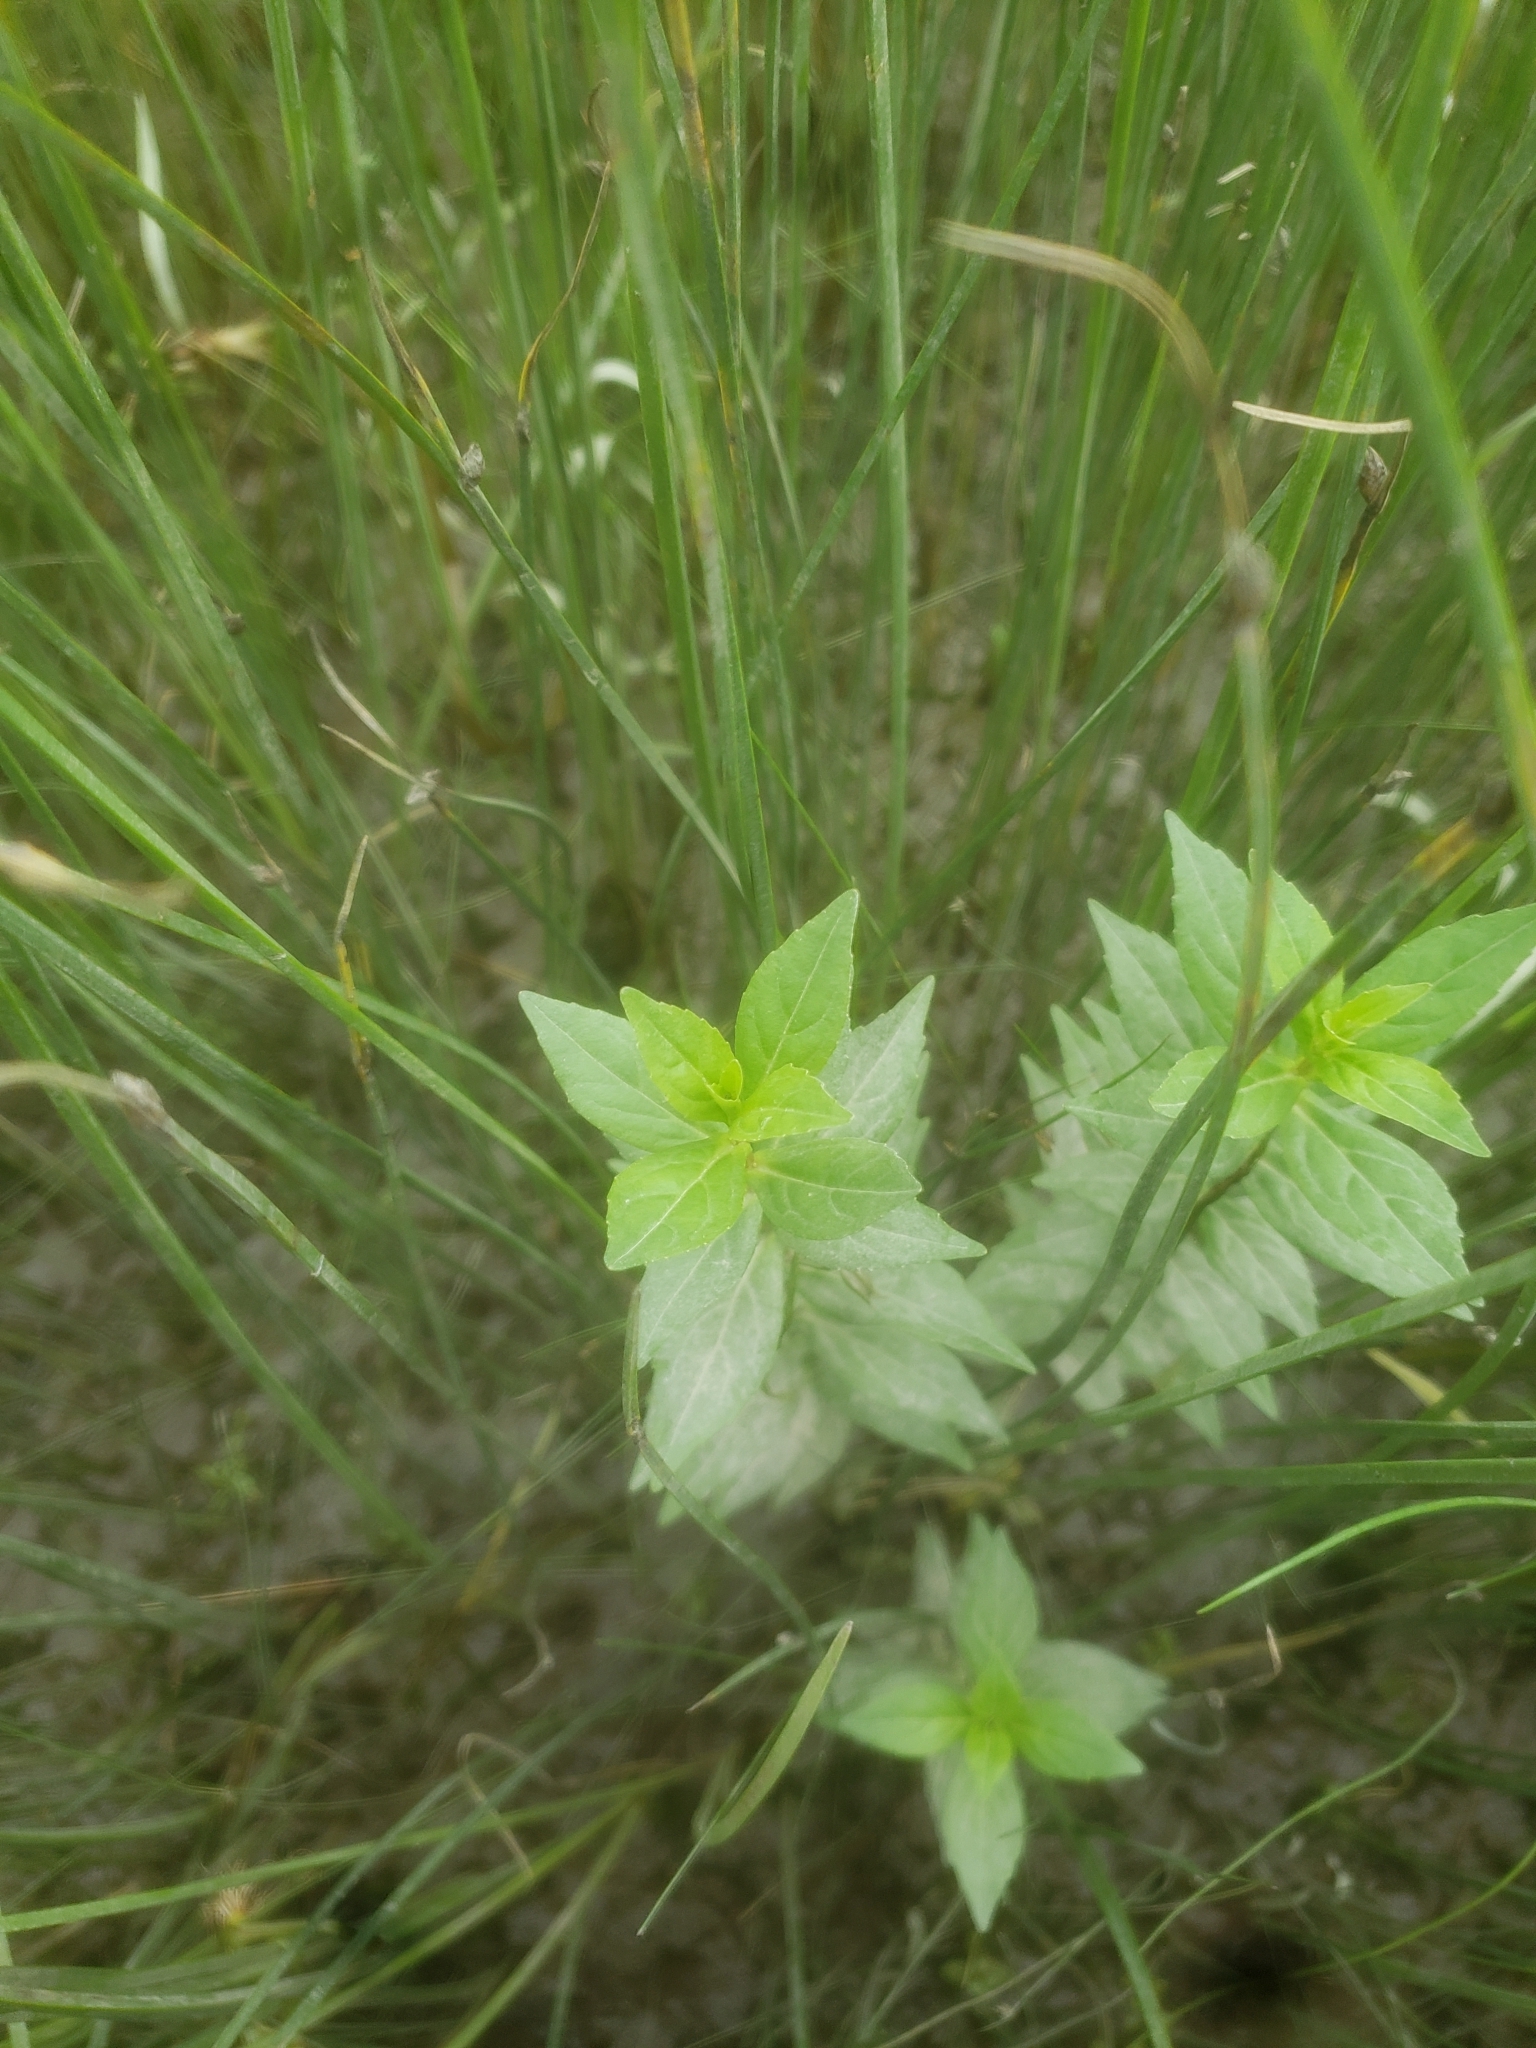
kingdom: Plantae
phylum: Tracheophyta
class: Magnoliopsida
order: Lamiales
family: Phrymaceae
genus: Mimulus
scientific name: Mimulus ringens
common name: Allegheny monkeyflower
